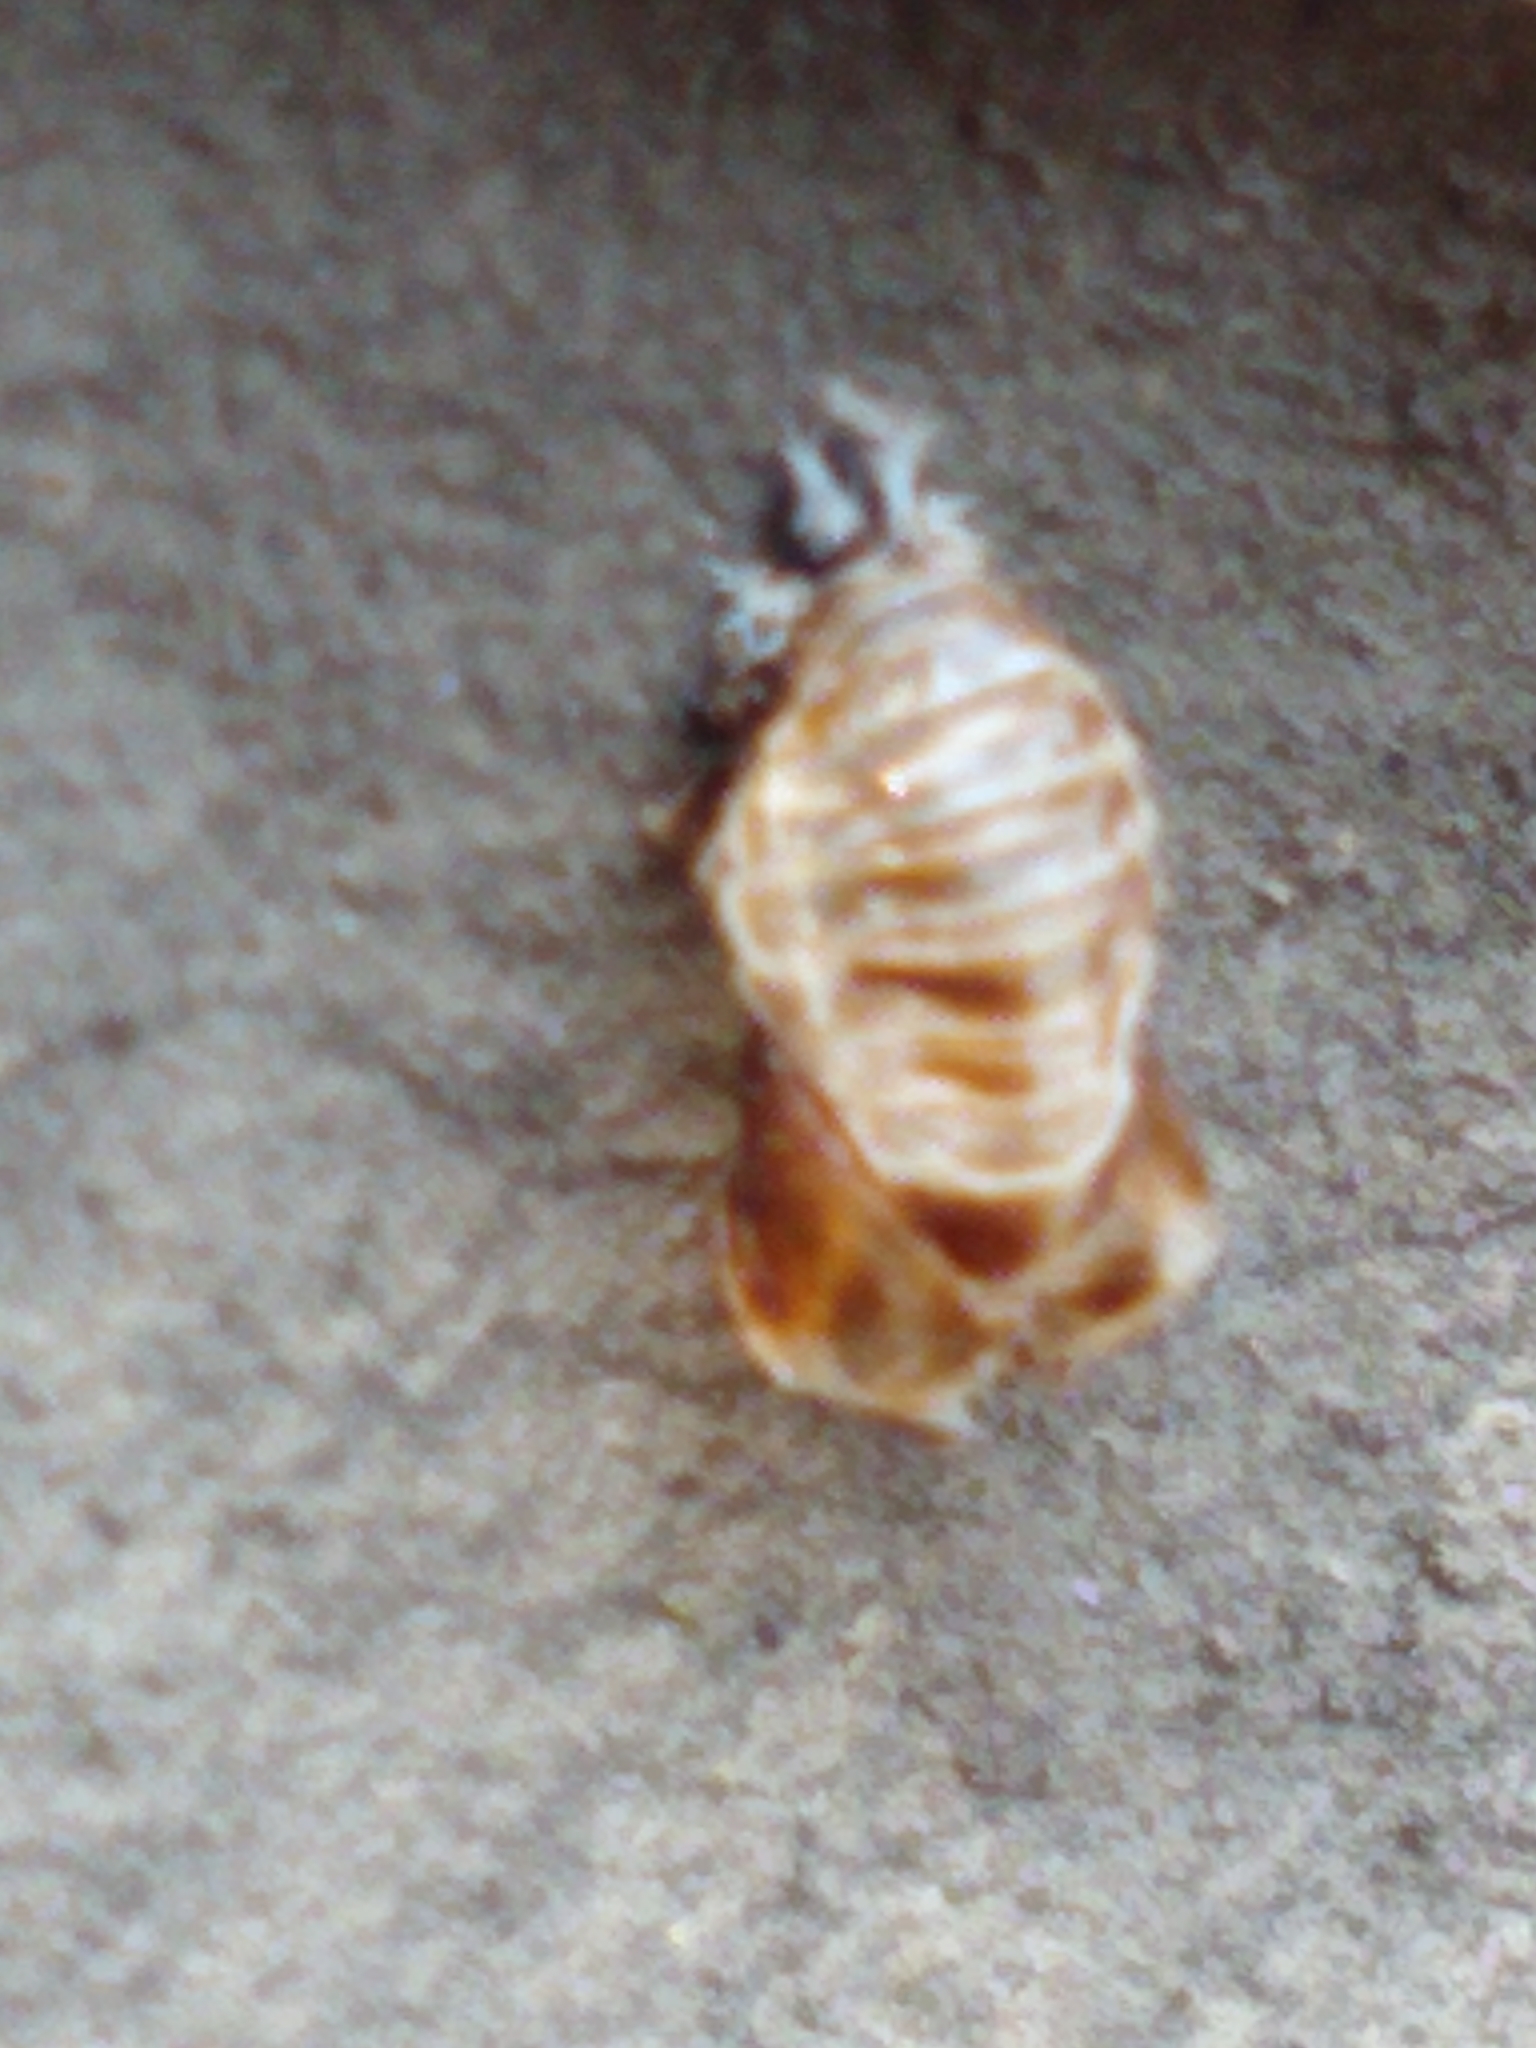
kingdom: Animalia
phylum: Arthropoda
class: Insecta
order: Coleoptera
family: Coccinellidae
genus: Harmonia
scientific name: Harmonia axyridis
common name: Harlequin ladybird
